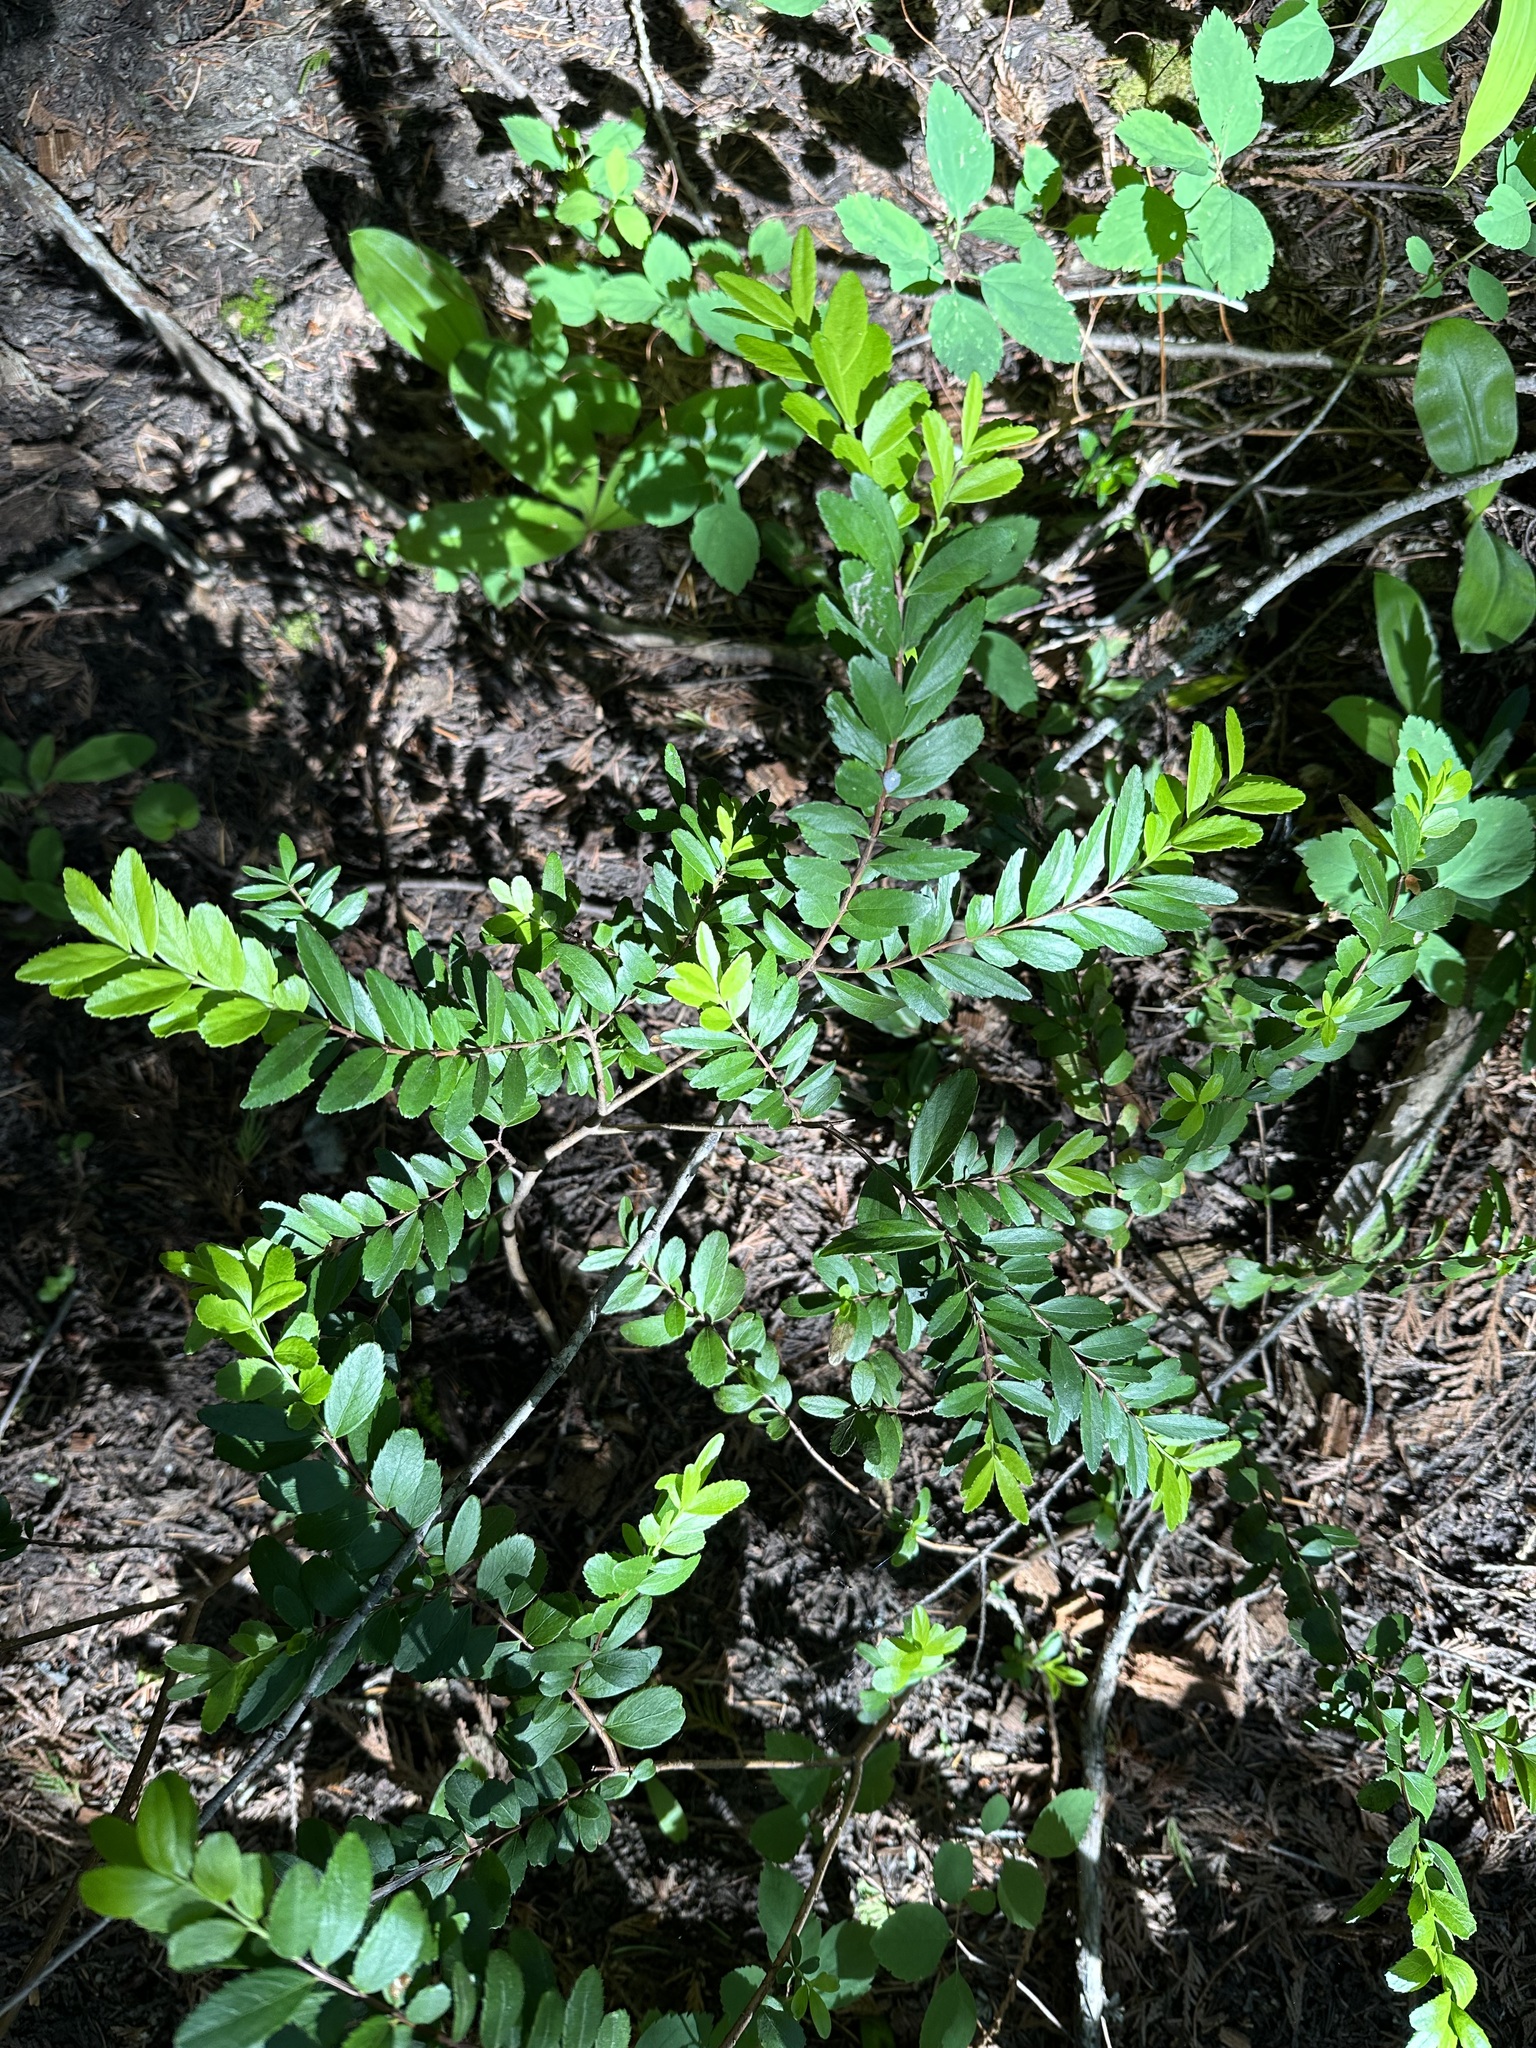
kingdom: Plantae
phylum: Tracheophyta
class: Magnoliopsida
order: Celastrales
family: Celastraceae
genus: Paxistima
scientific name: Paxistima myrsinites
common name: Mountain-lover
